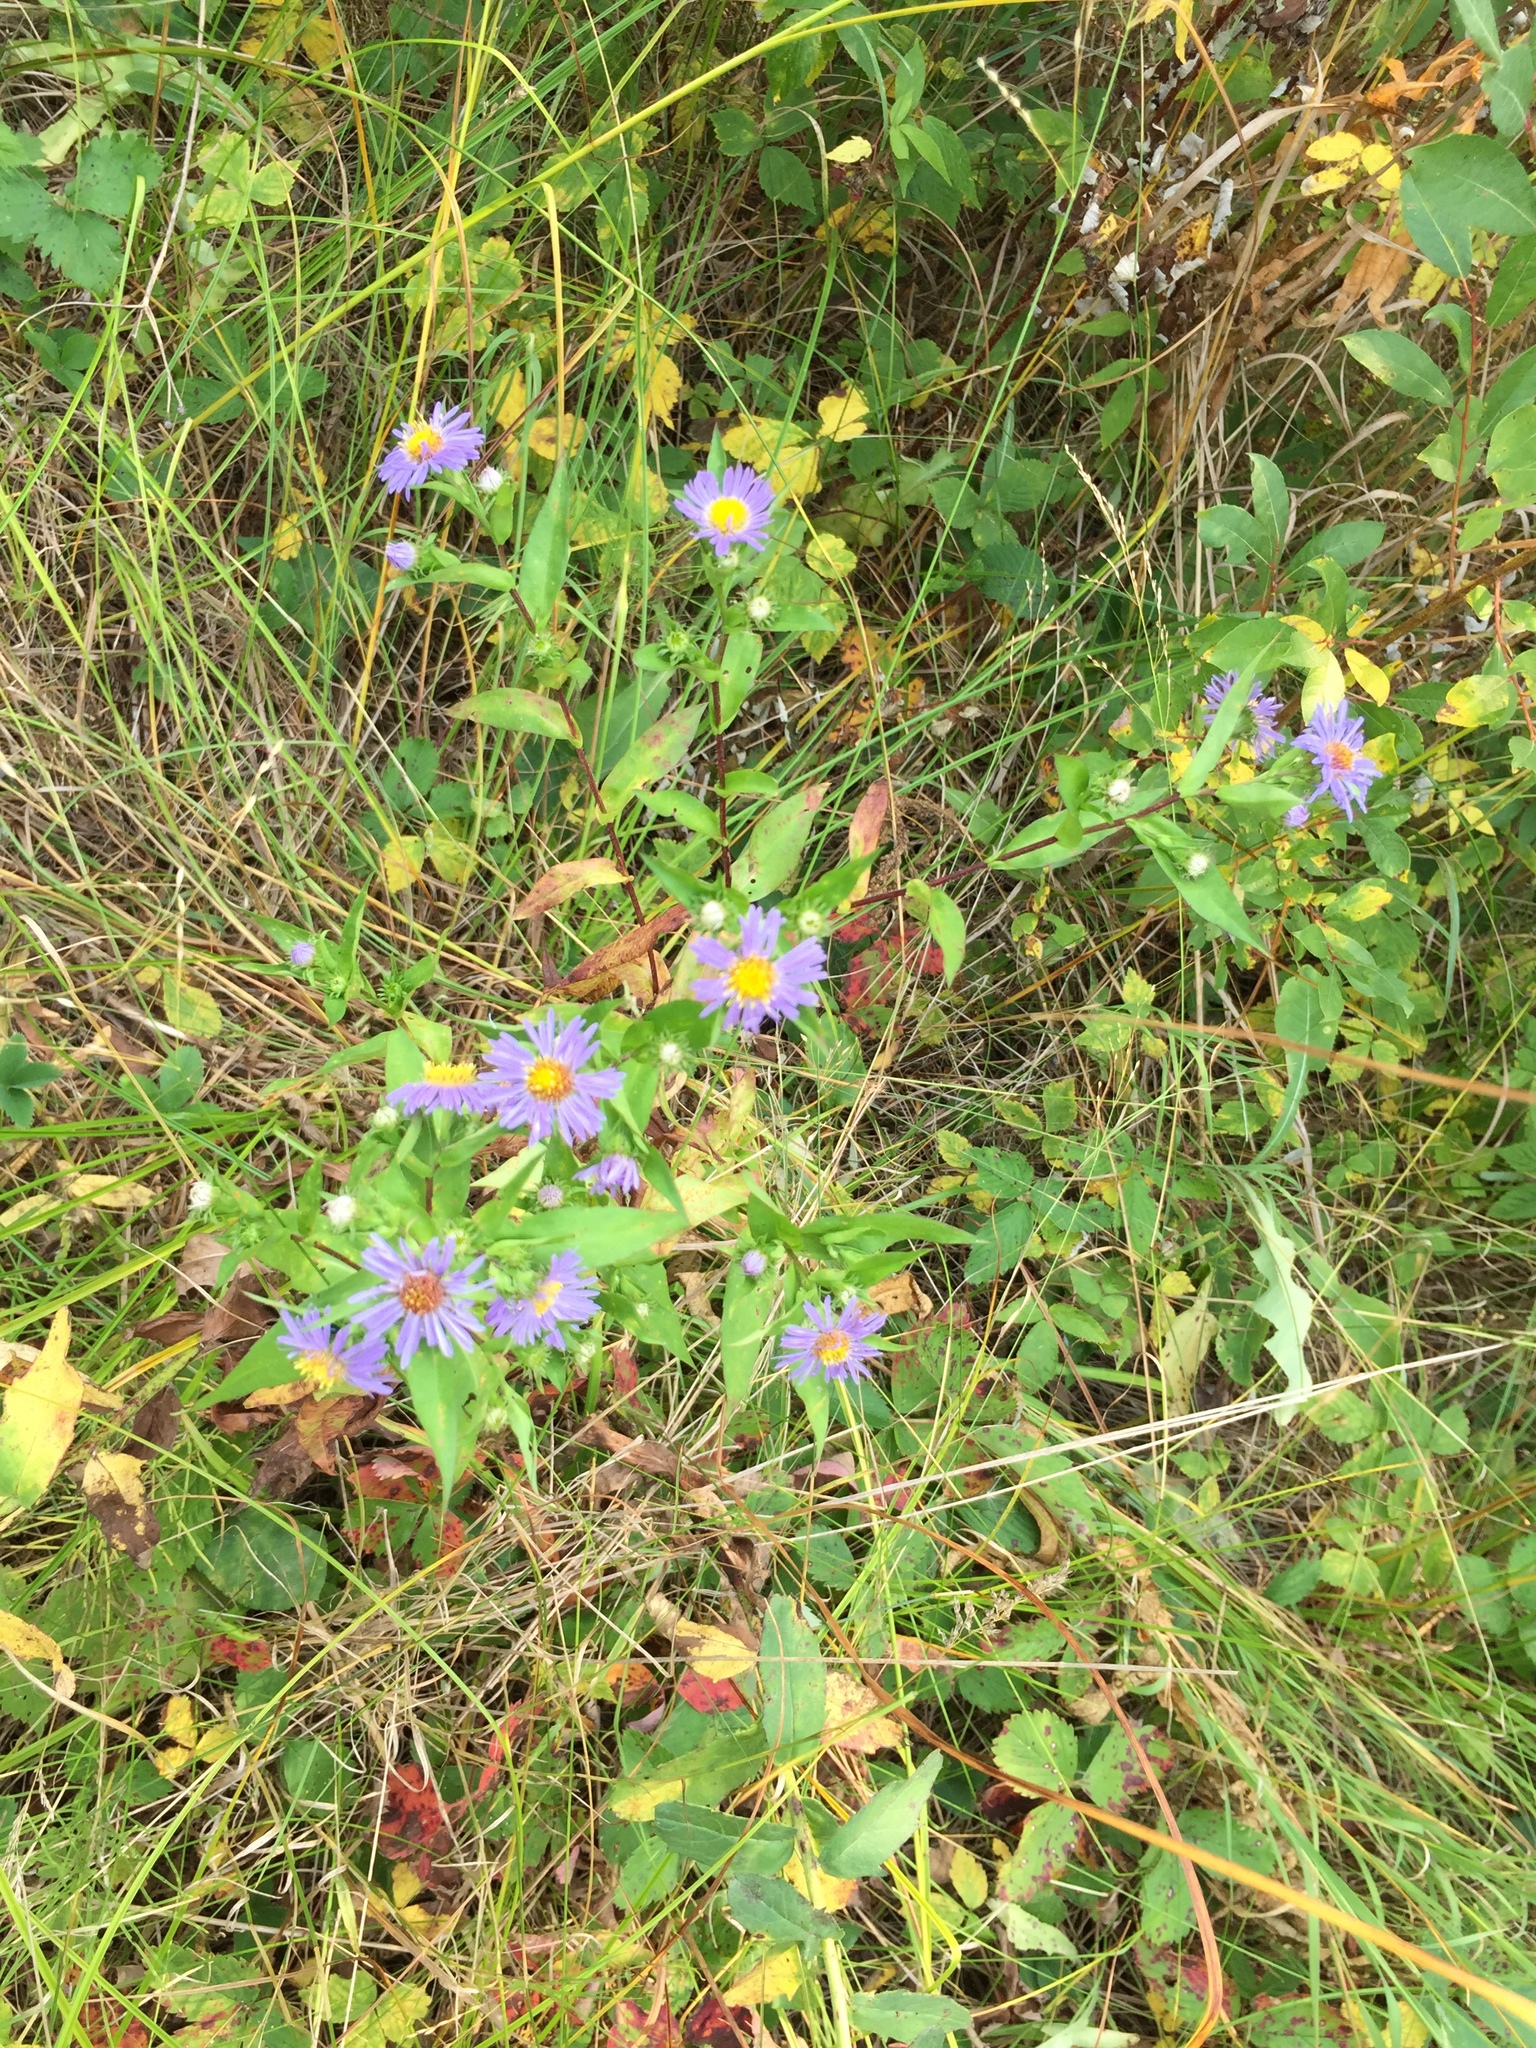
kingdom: Plantae
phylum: Tracheophyta
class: Magnoliopsida
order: Asterales
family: Asteraceae
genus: Symphyotrichum
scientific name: Symphyotrichum puniceum
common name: Bog aster
